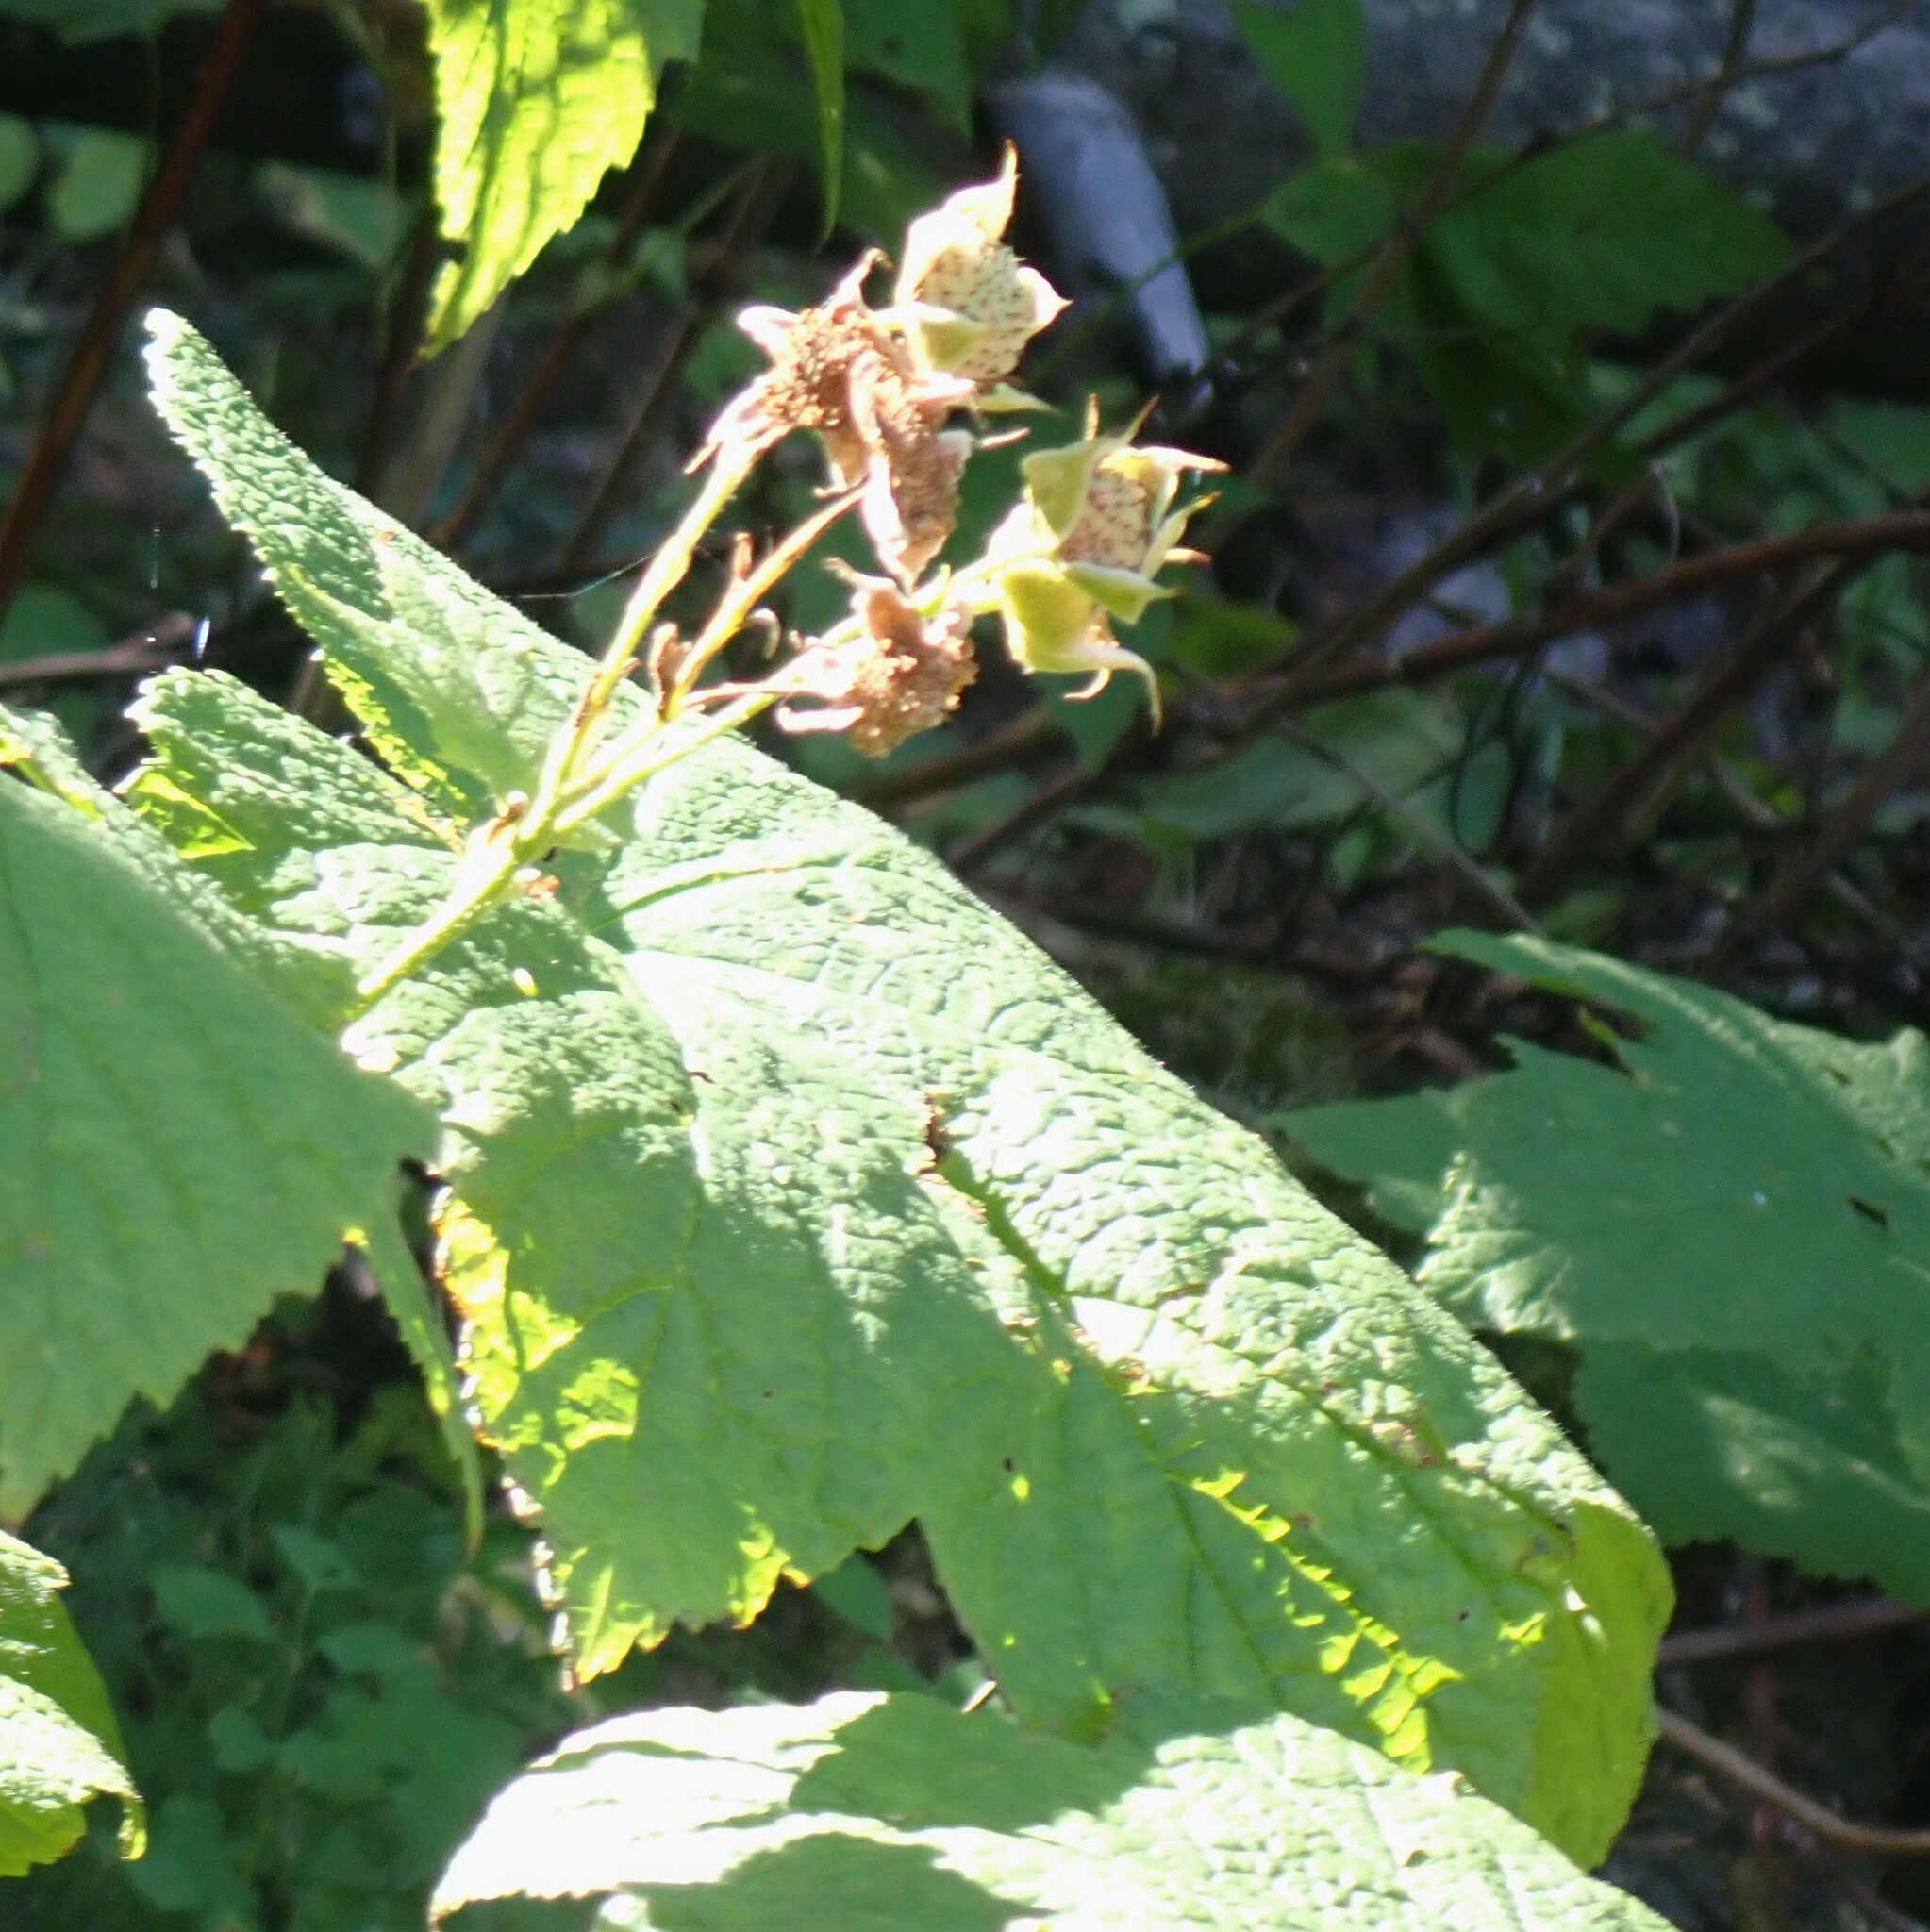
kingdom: Plantae
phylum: Tracheophyta
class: Magnoliopsida
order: Rosales
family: Rosaceae
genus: Rubus
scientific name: Rubus parviflorus
